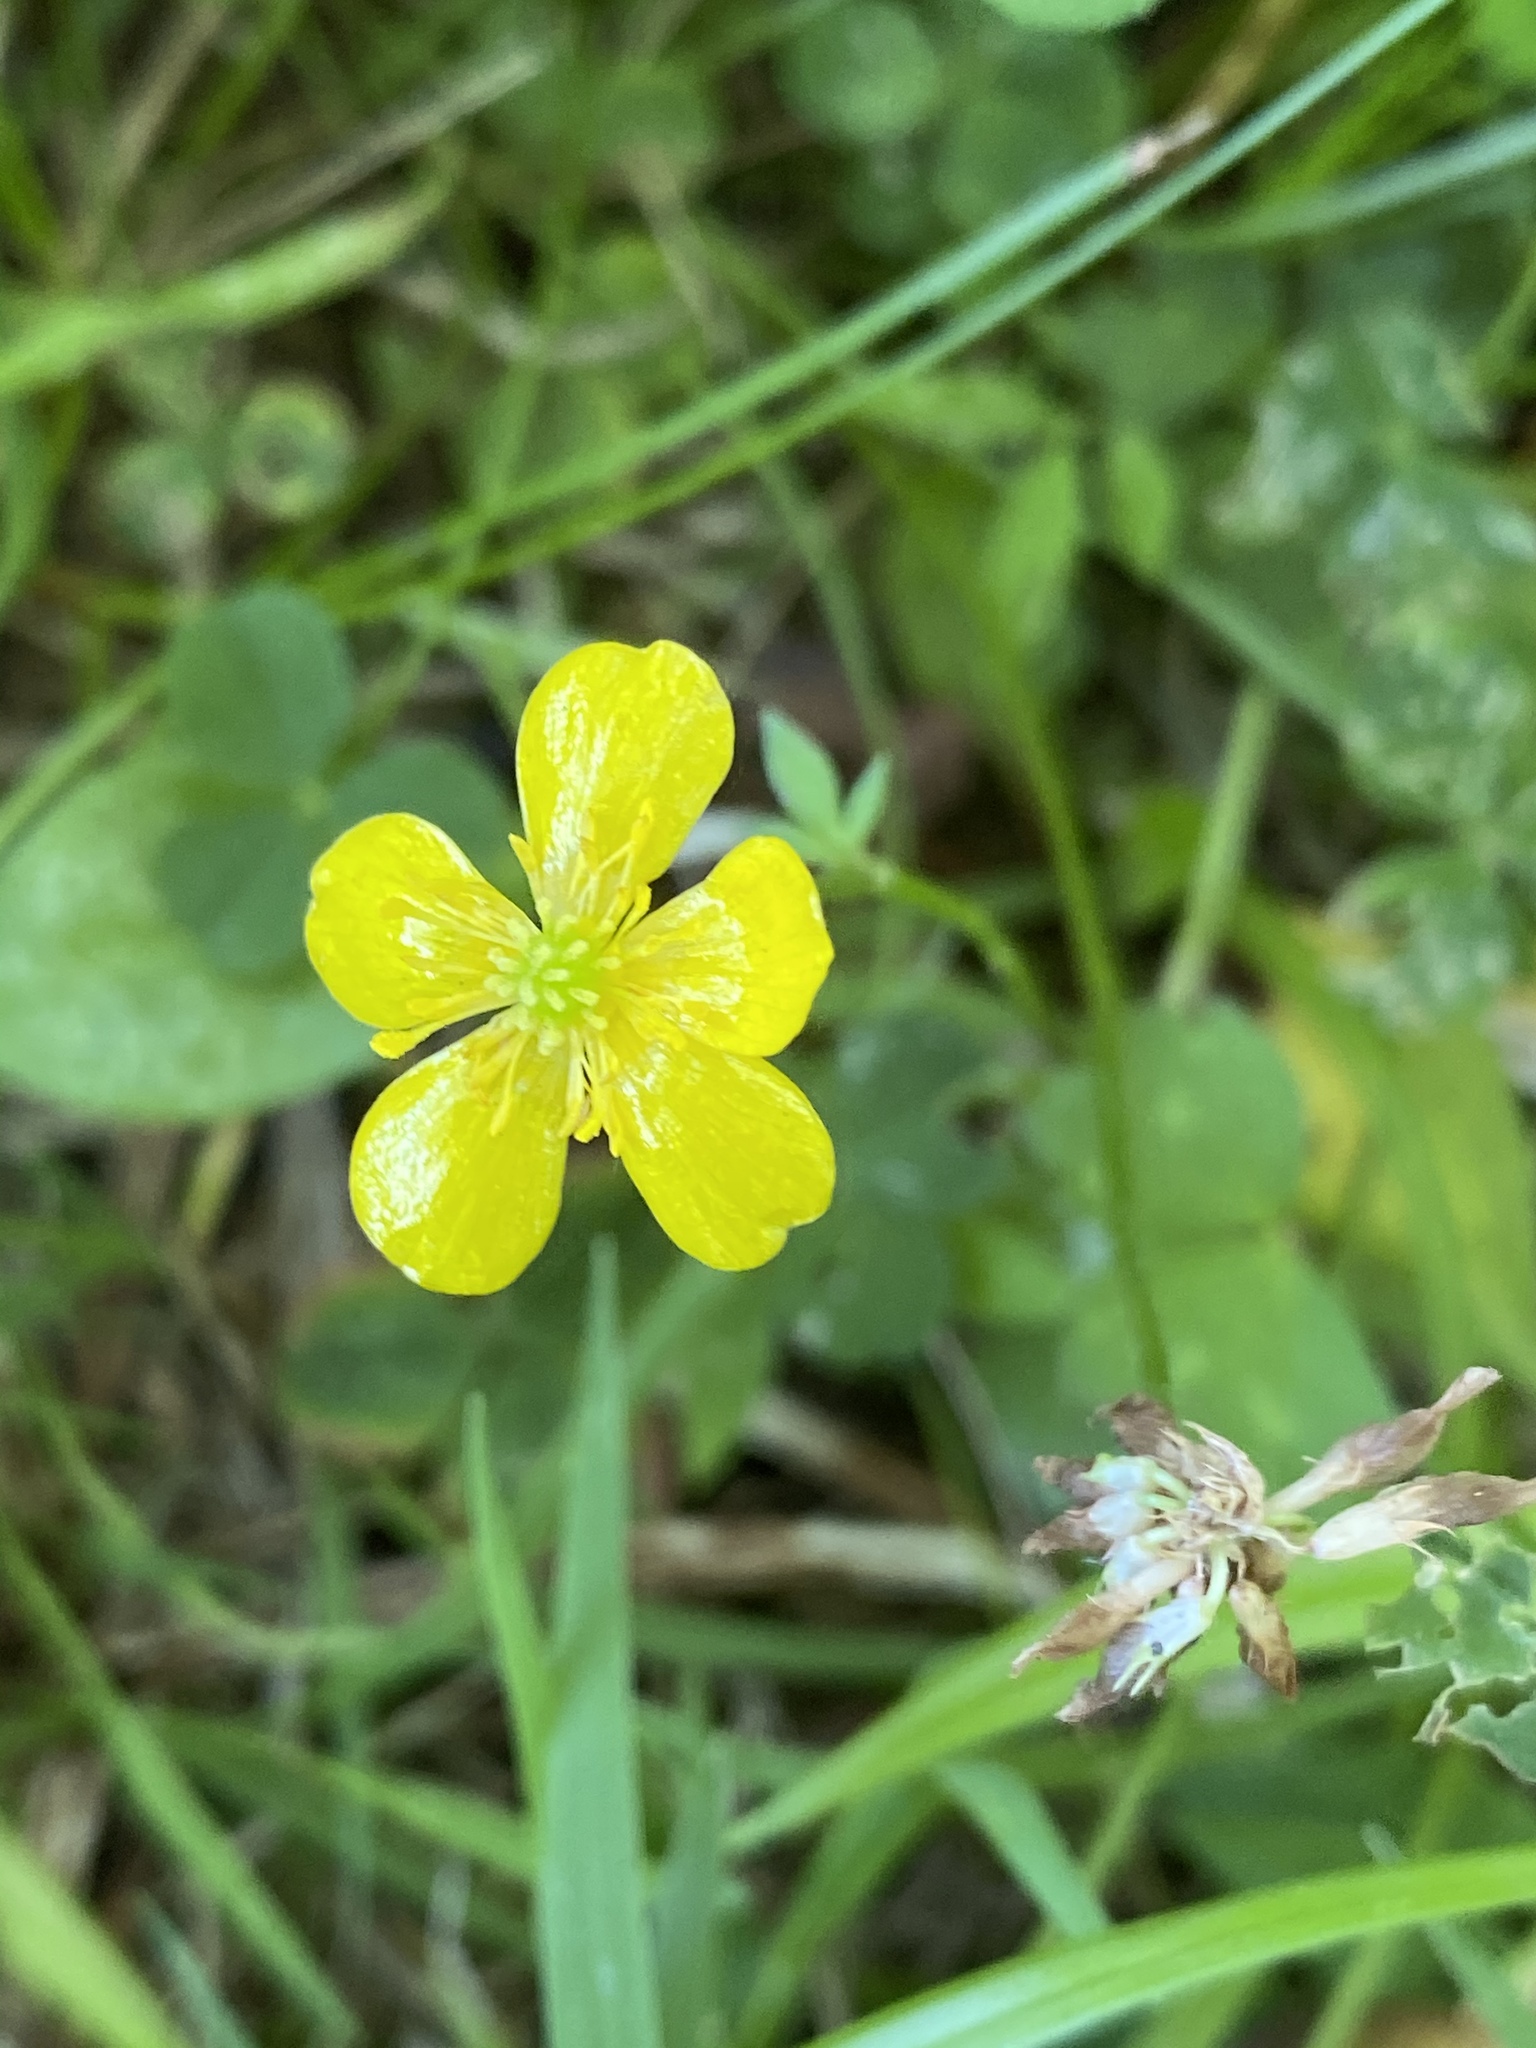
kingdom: Plantae
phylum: Tracheophyta
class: Magnoliopsida
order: Ranunculales
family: Ranunculaceae
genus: Ranunculus
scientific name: Ranunculus repens
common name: Creeping buttercup
